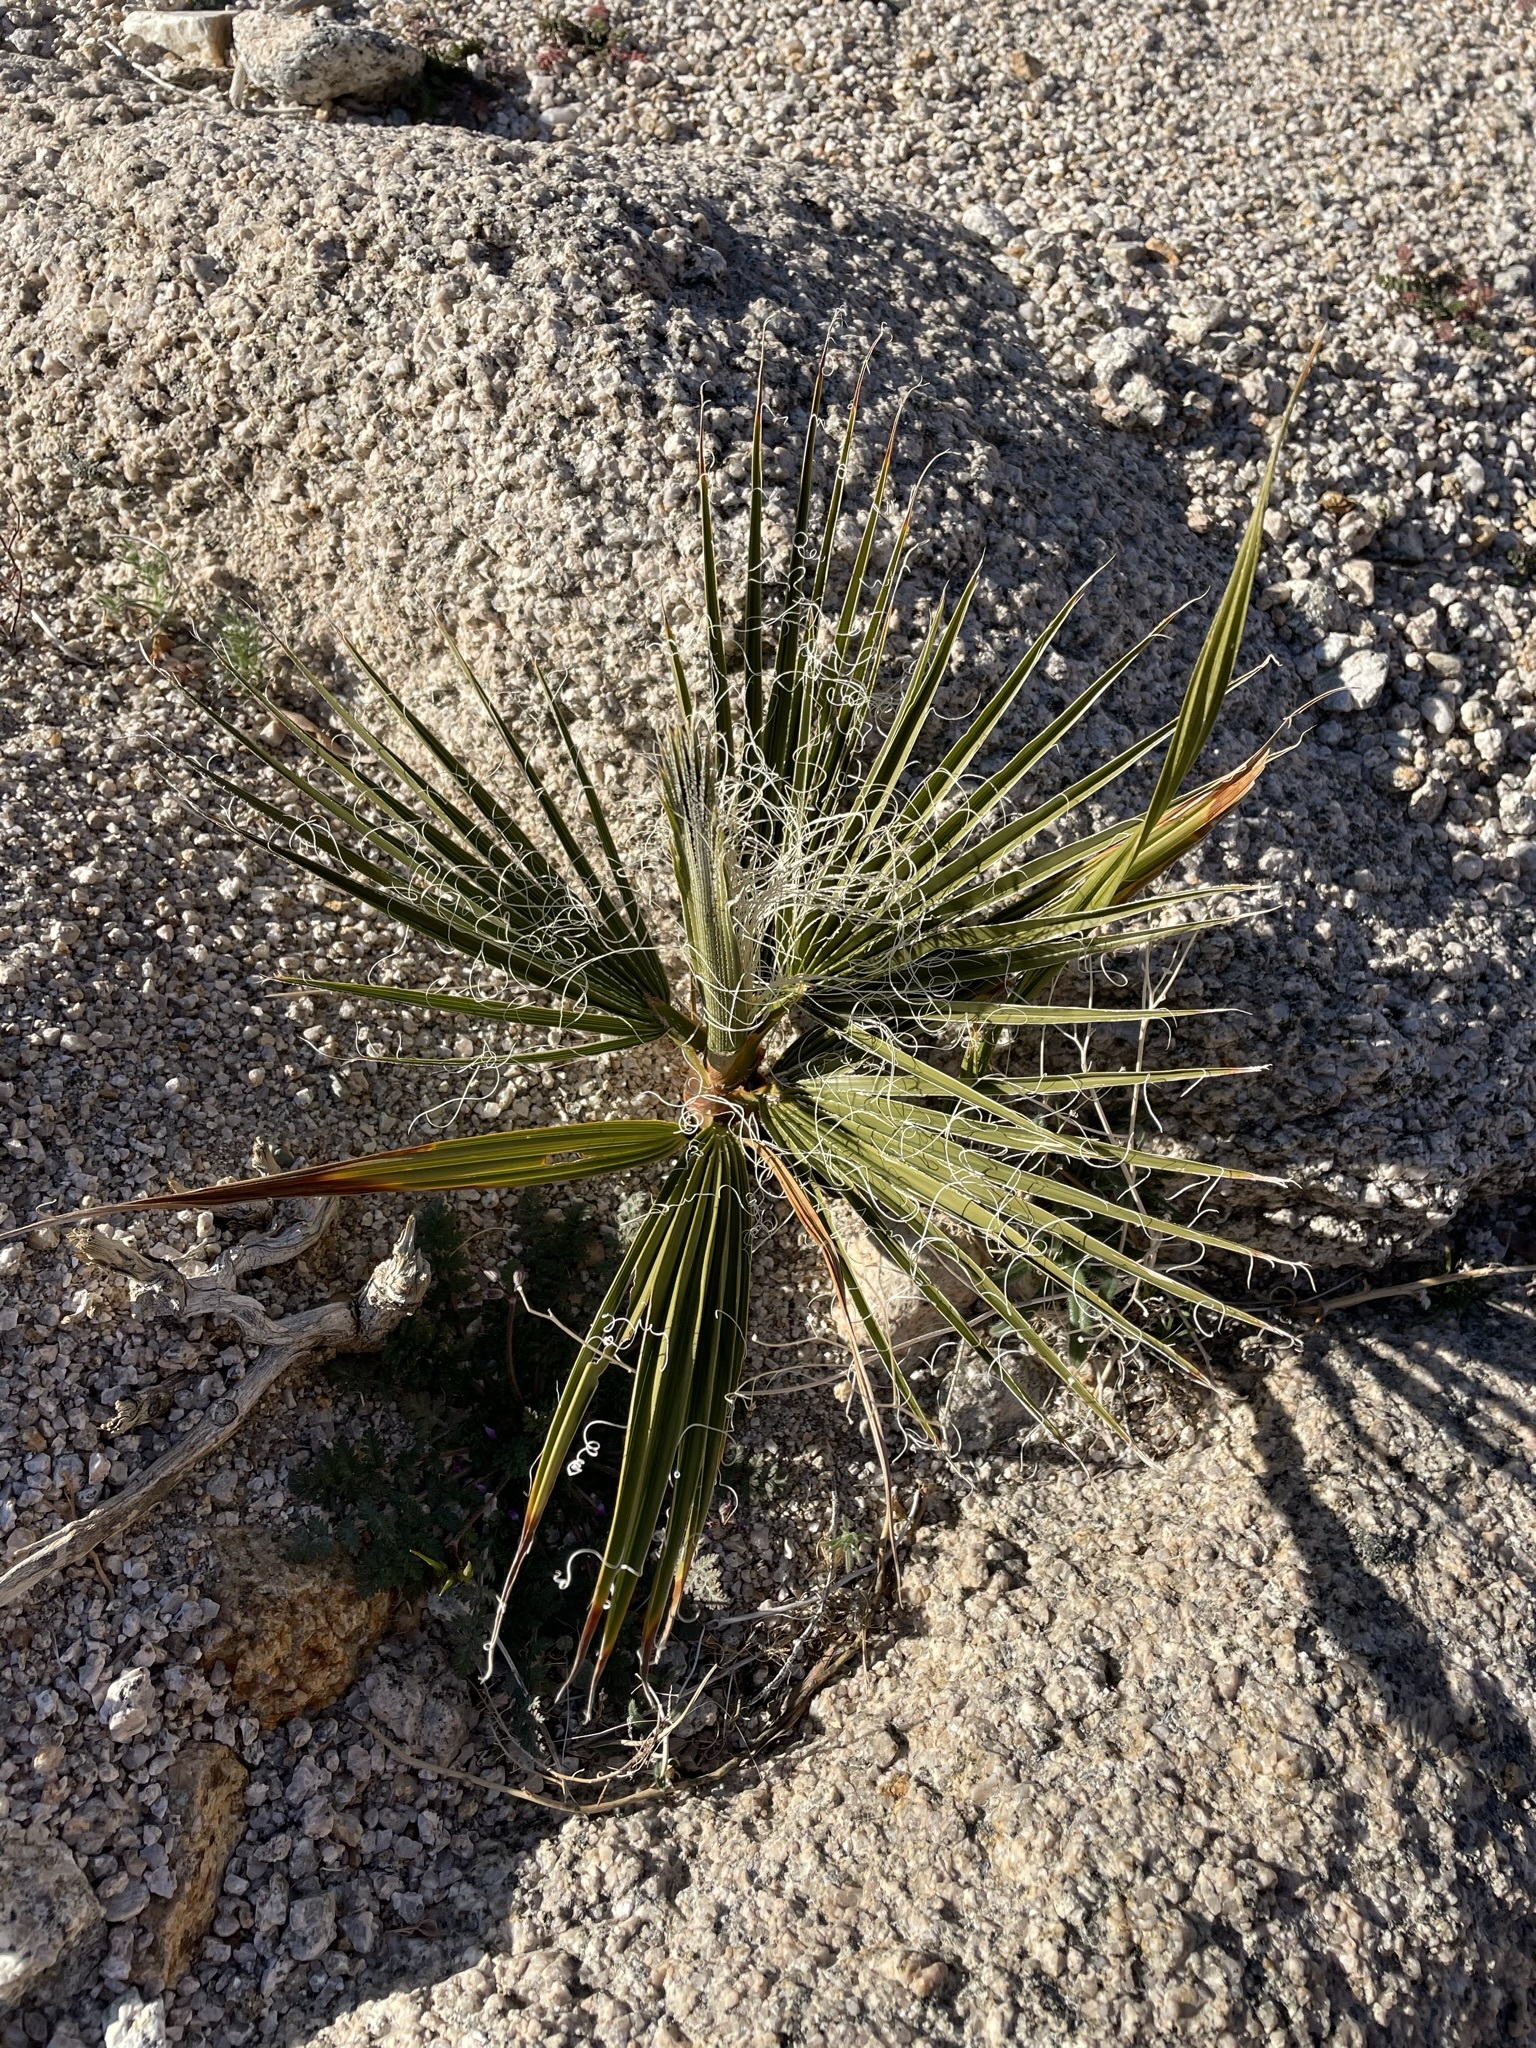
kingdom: Plantae
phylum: Tracheophyta
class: Liliopsida
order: Arecales
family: Arecaceae
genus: Washingtonia
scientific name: Washingtonia filifera
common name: California fan palm
